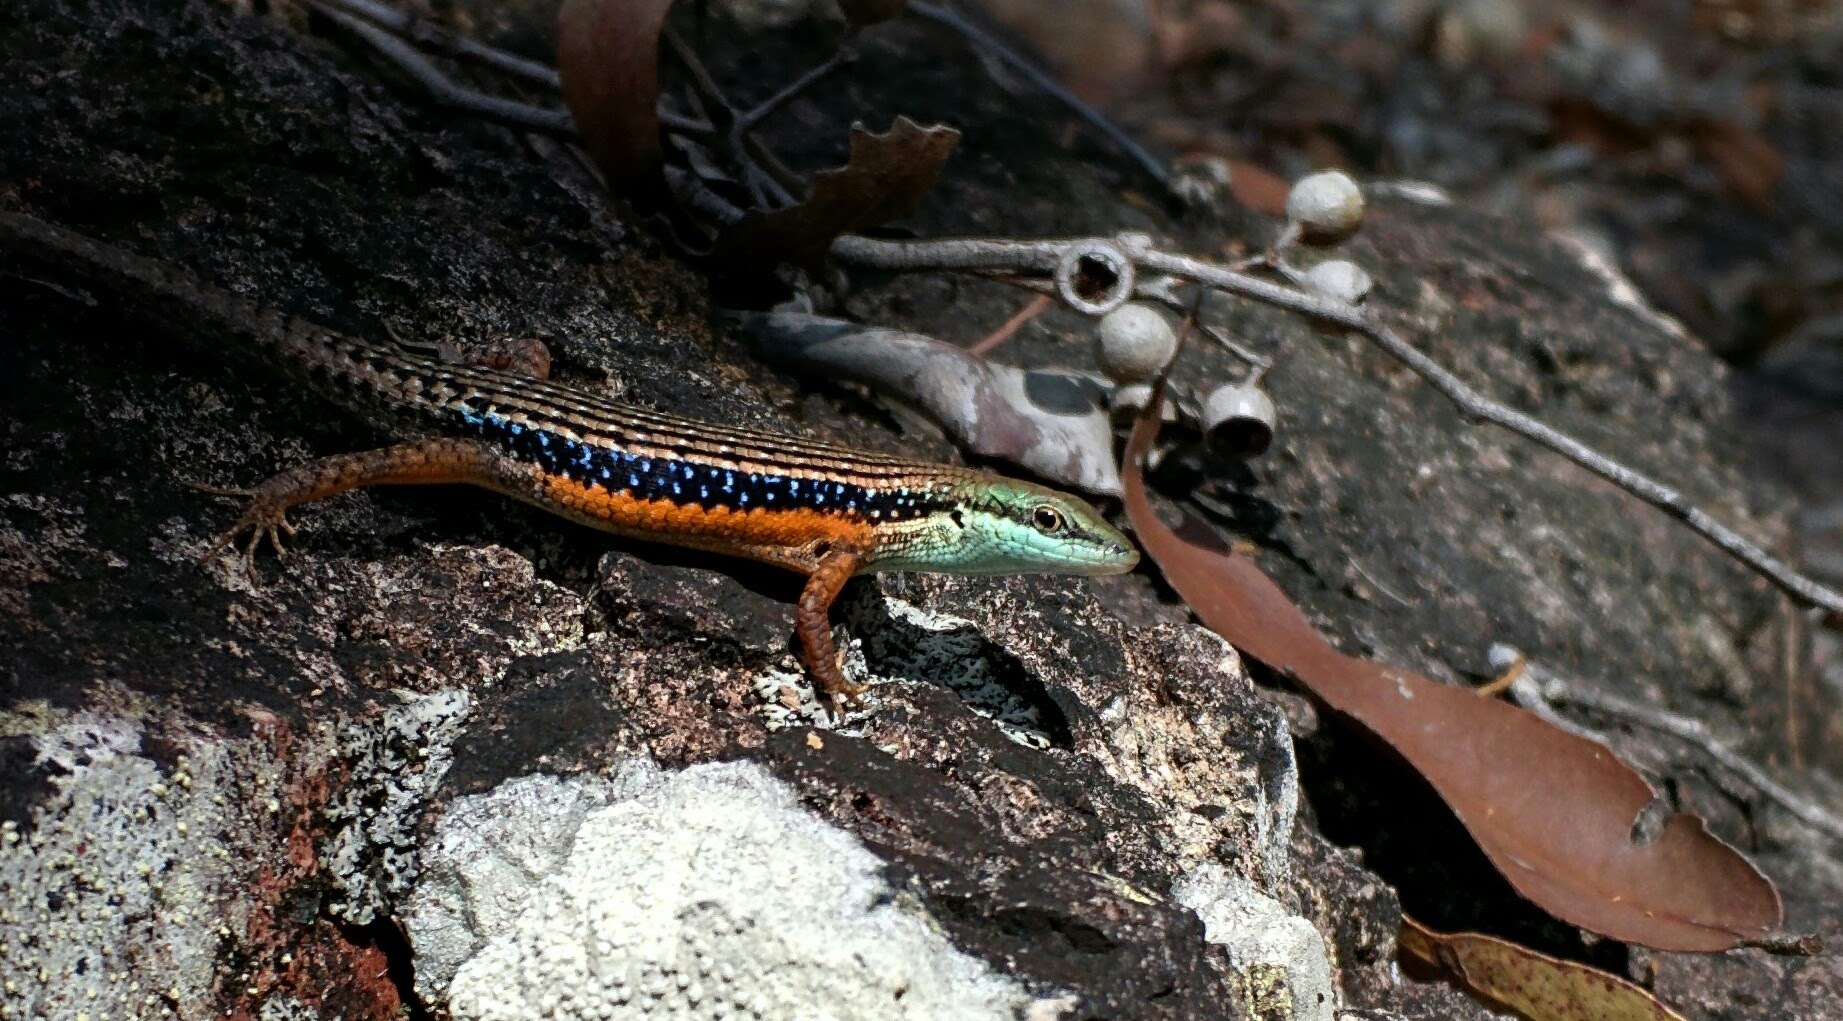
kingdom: Animalia
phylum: Chordata
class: Squamata
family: Scincidae
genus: Carlia
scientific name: Carlia jarnoldae
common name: Lined rainbow-skink
